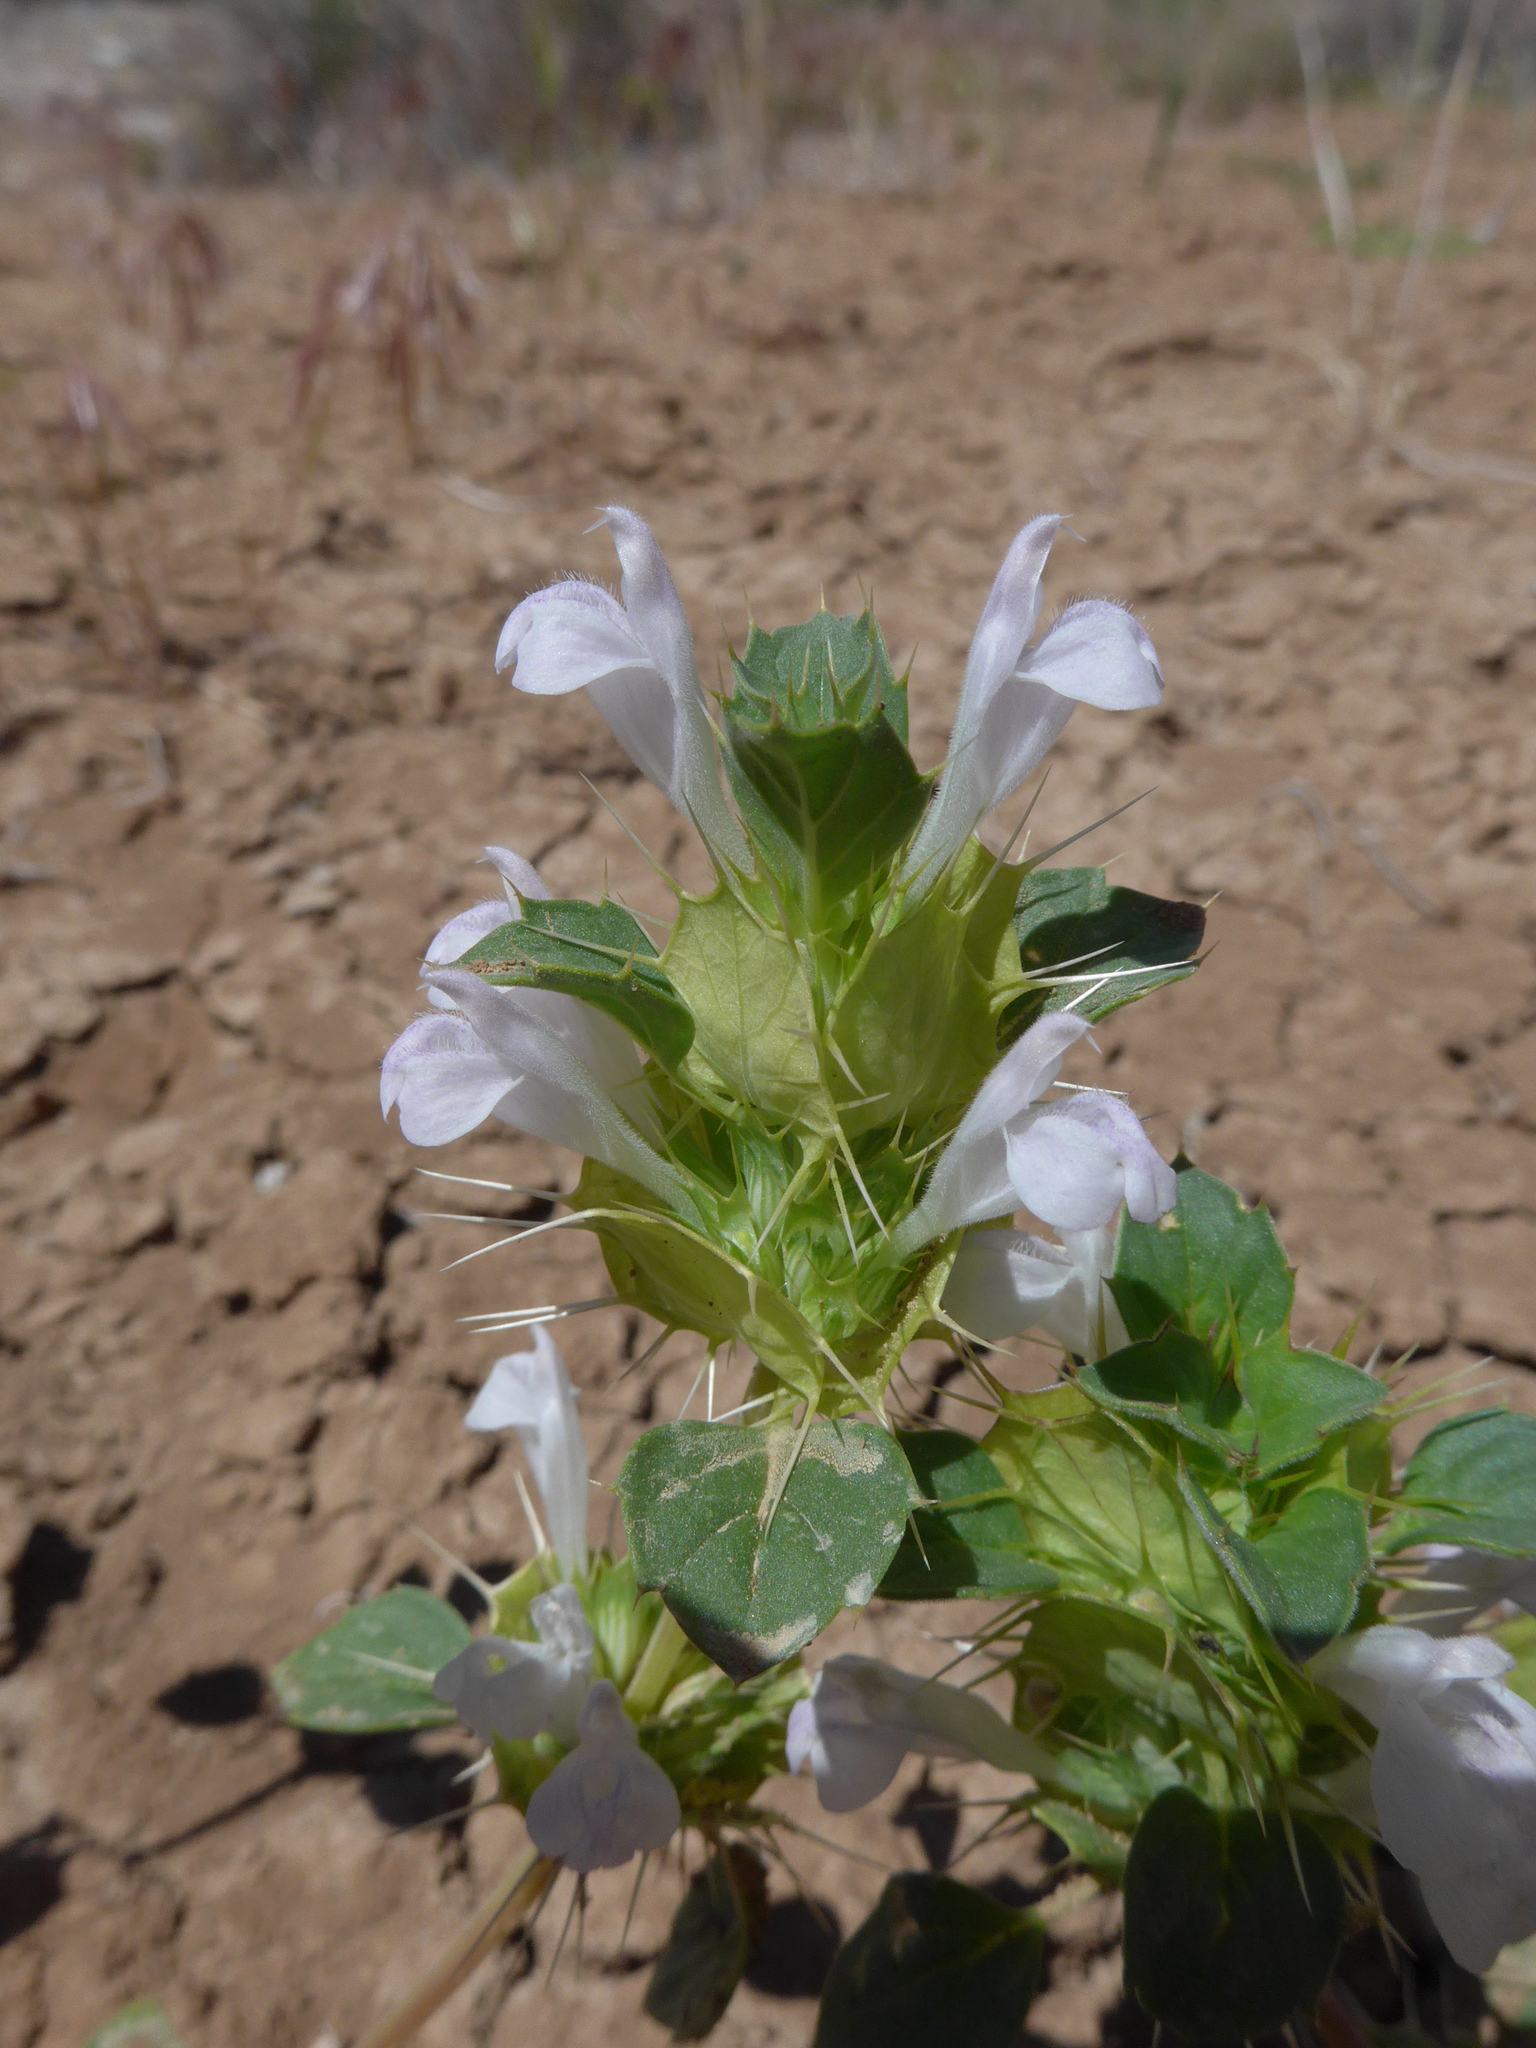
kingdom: Plantae
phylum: Tracheophyta
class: Magnoliopsida
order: Lamiales
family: Lamiaceae
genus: Acanthomintha
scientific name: Acanthomintha obovata
